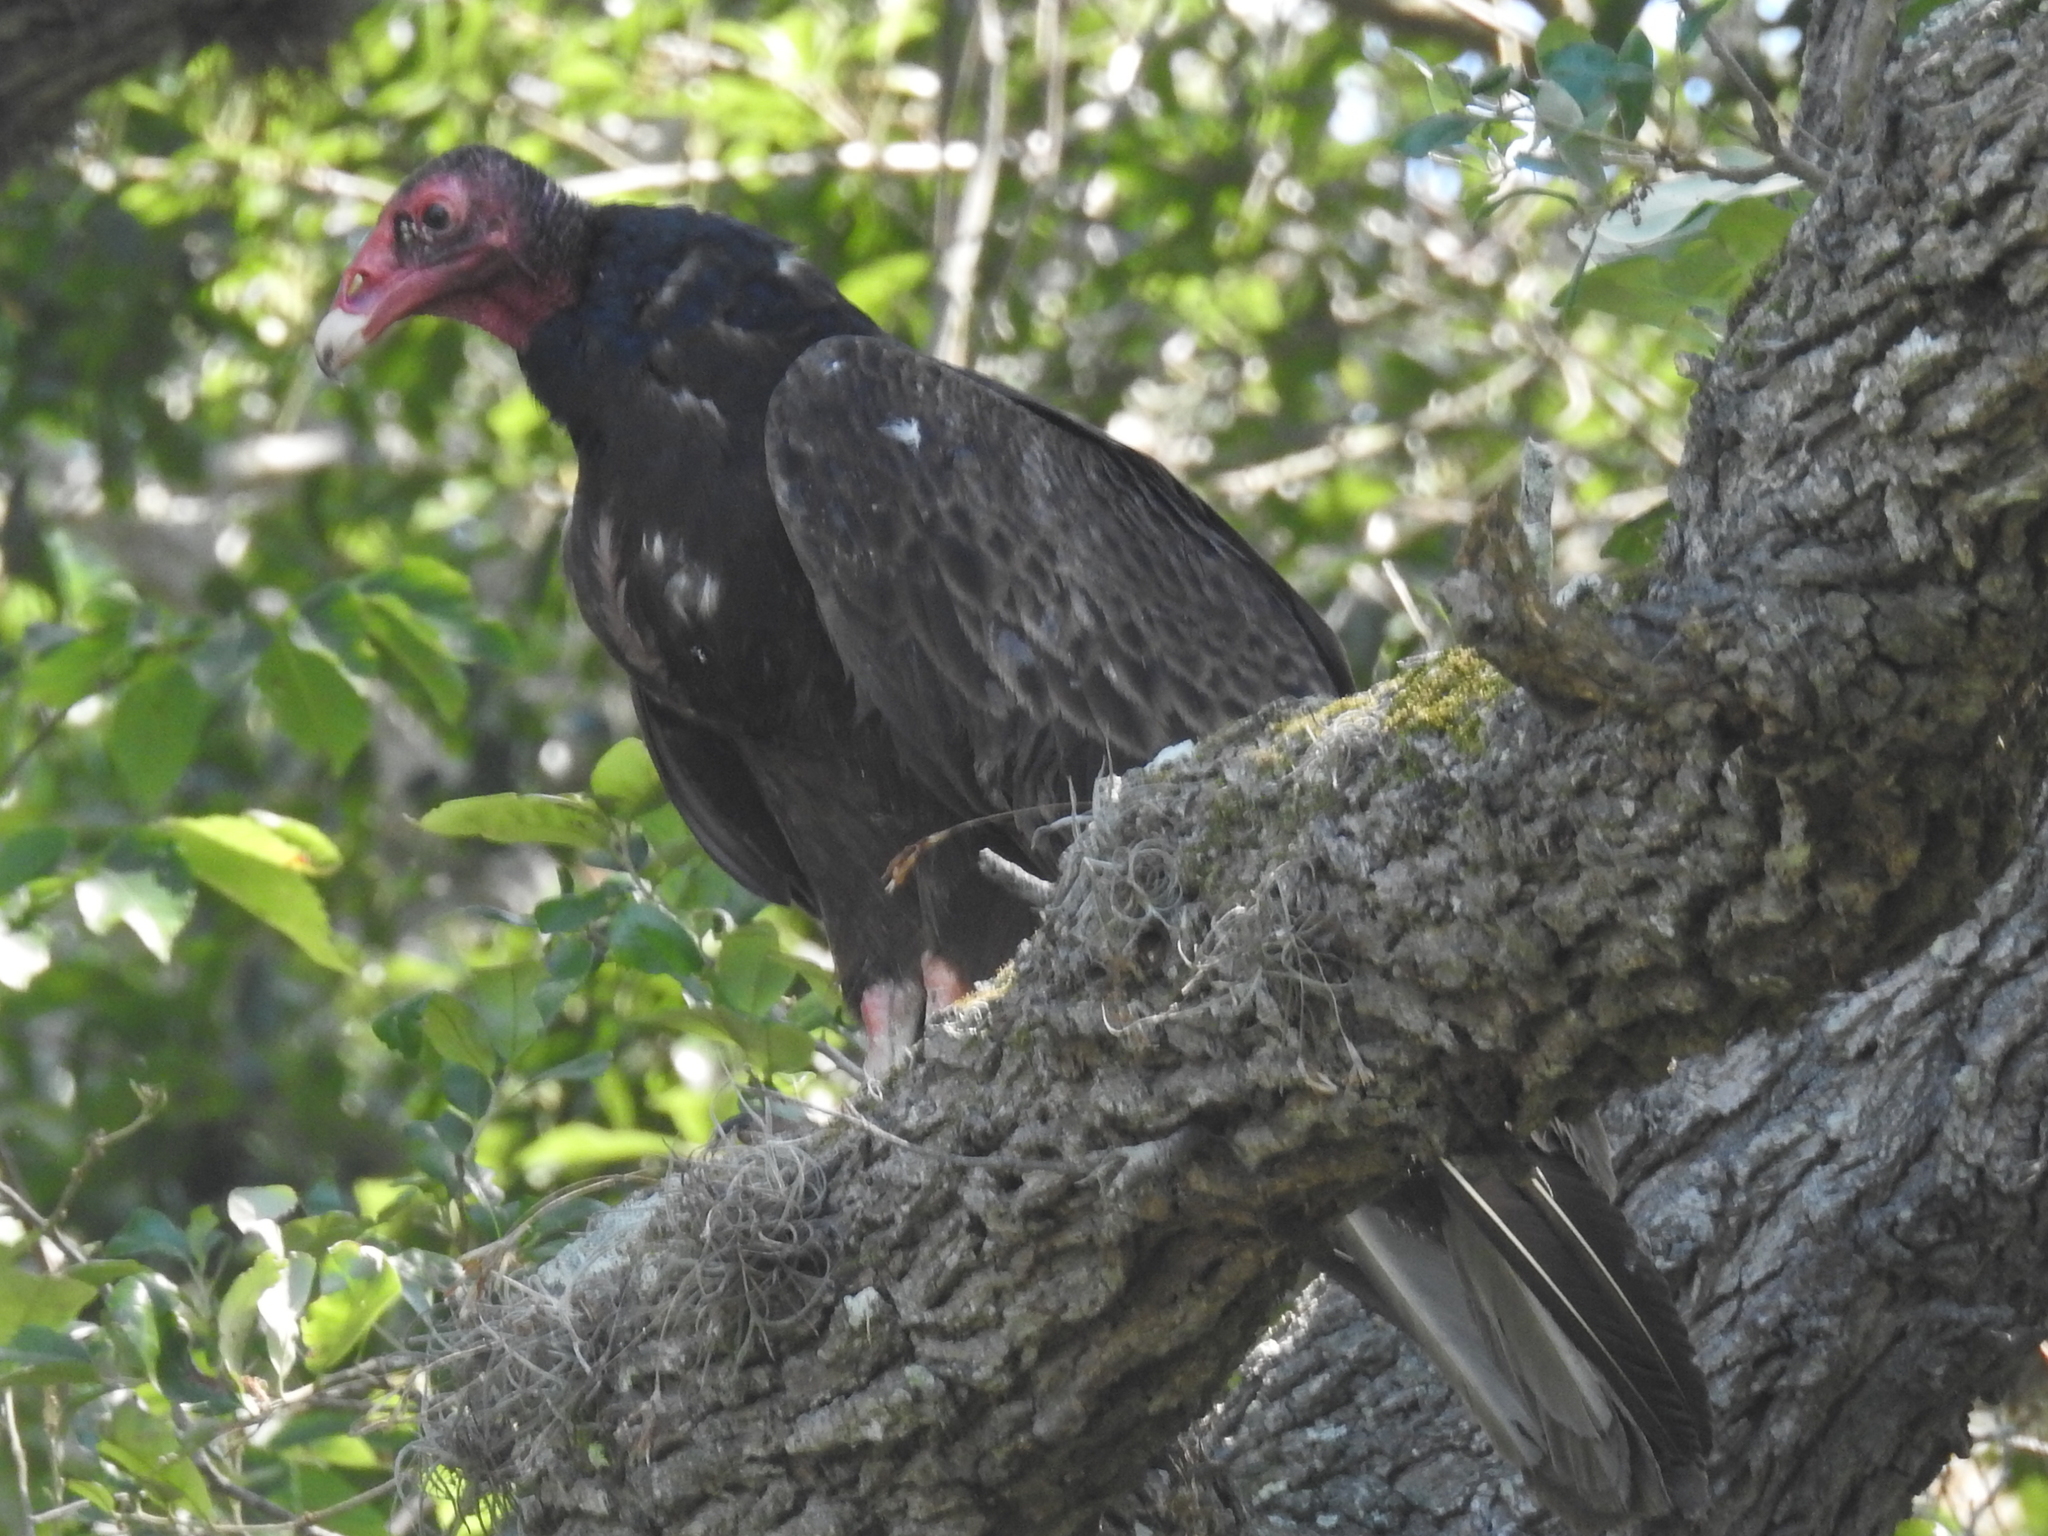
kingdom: Animalia
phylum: Chordata
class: Aves
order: Accipitriformes
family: Cathartidae
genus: Cathartes
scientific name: Cathartes aura
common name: Turkey vulture
